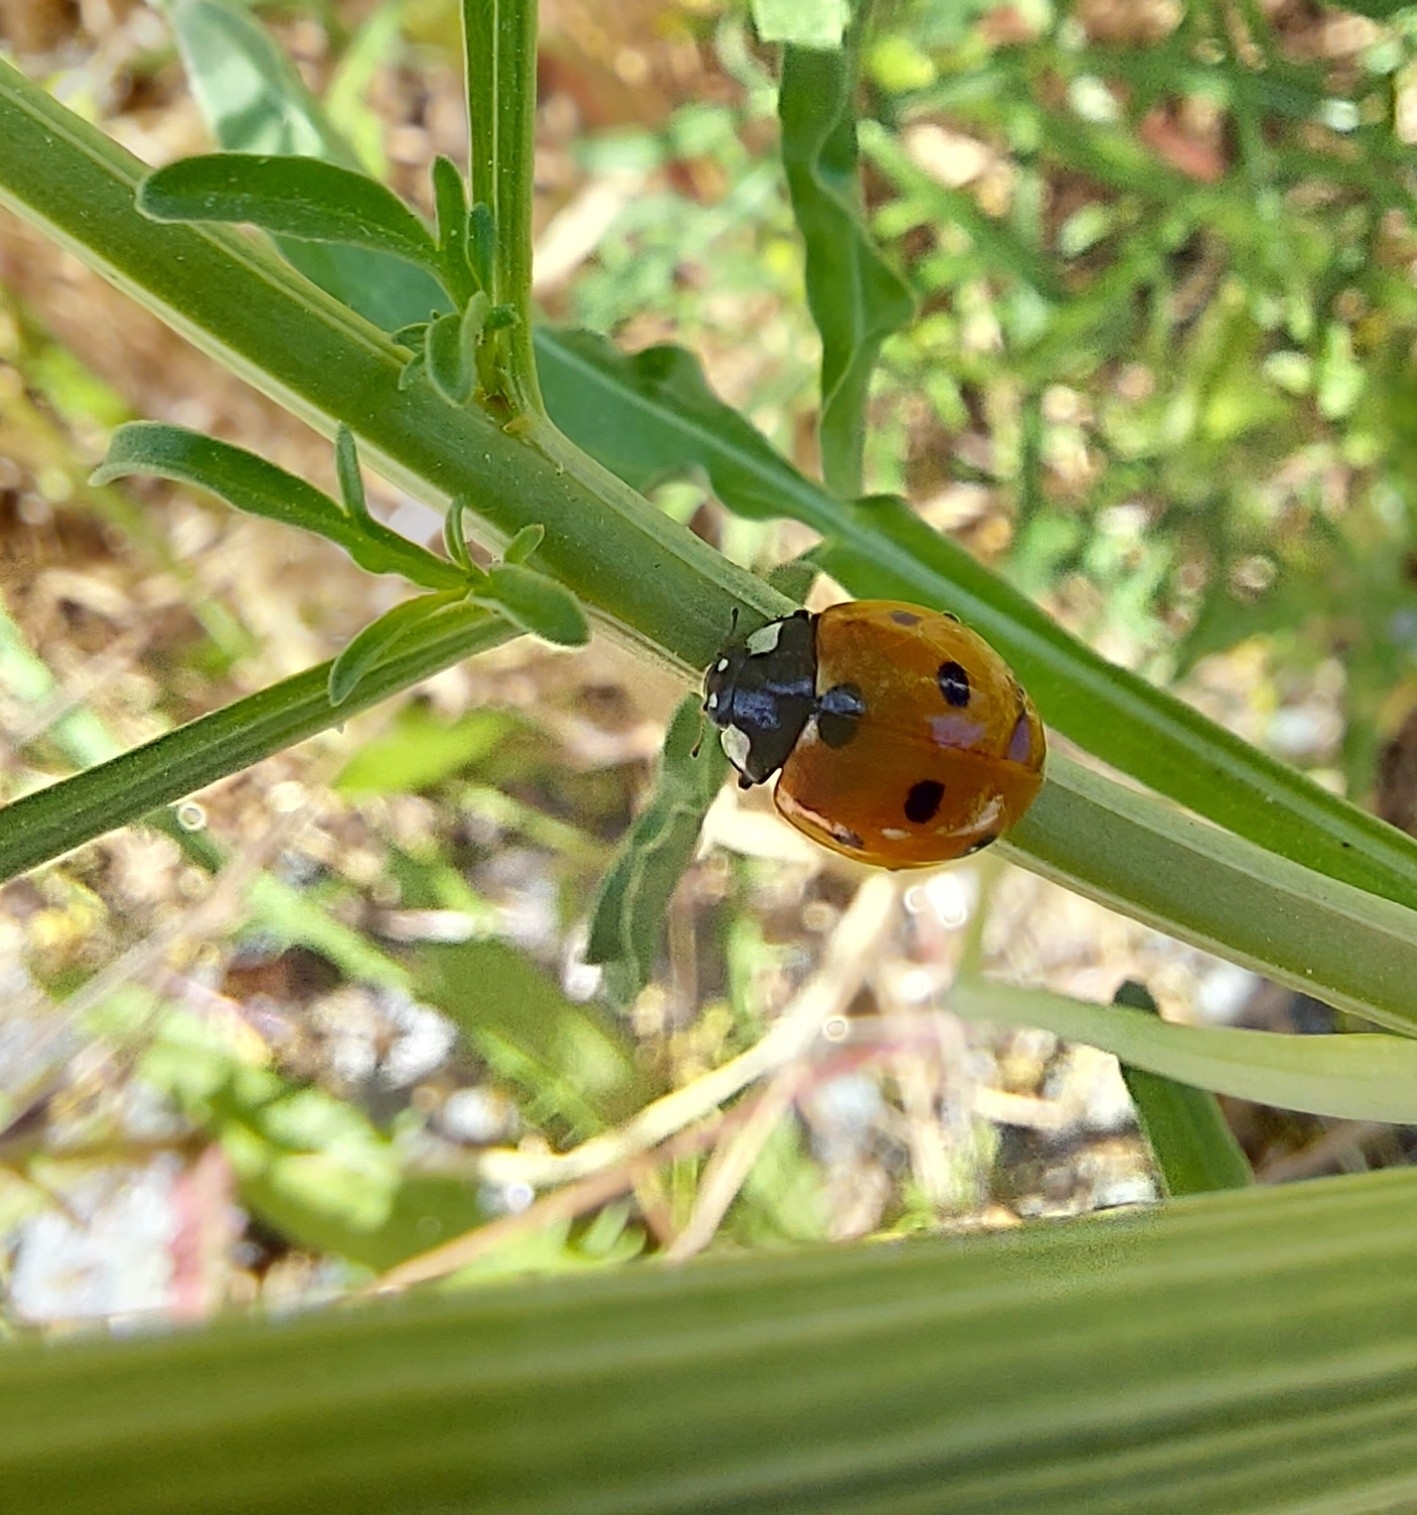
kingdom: Animalia
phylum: Arthropoda
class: Insecta
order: Coleoptera
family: Coccinellidae
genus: Coccinella
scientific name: Coccinella septempunctata
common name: Sevenspotted lady beetle
